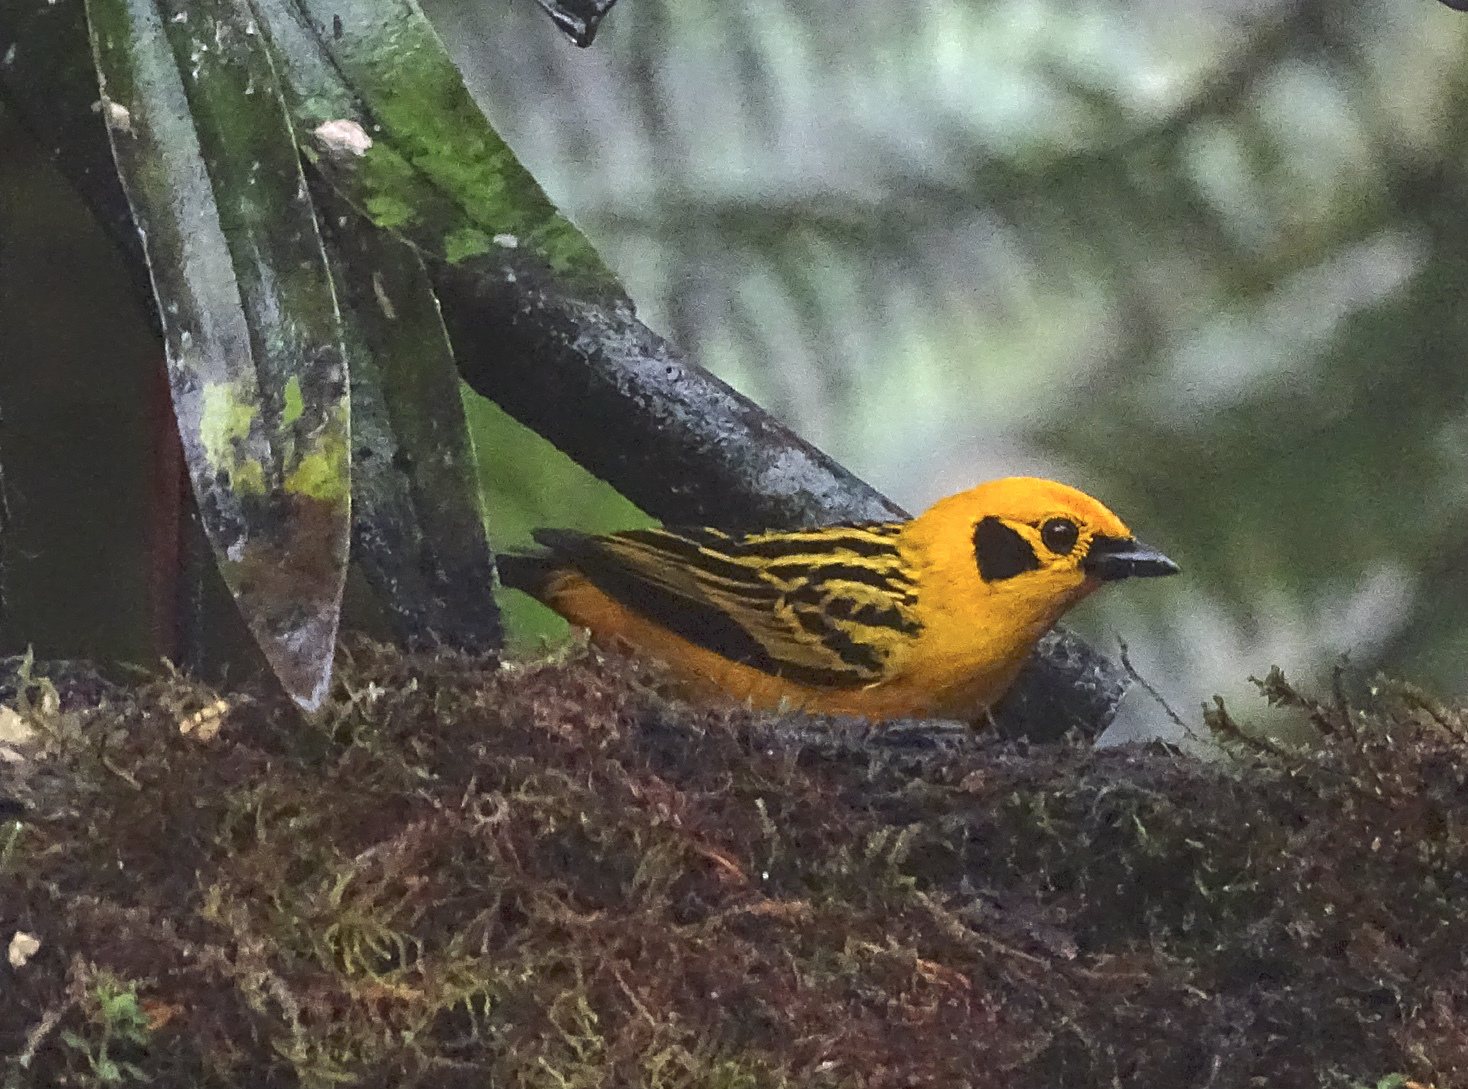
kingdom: Animalia
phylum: Chordata
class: Aves
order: Passeriformes
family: Thraupidae
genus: Tangara
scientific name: Tangara arthus
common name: Golden tanager
